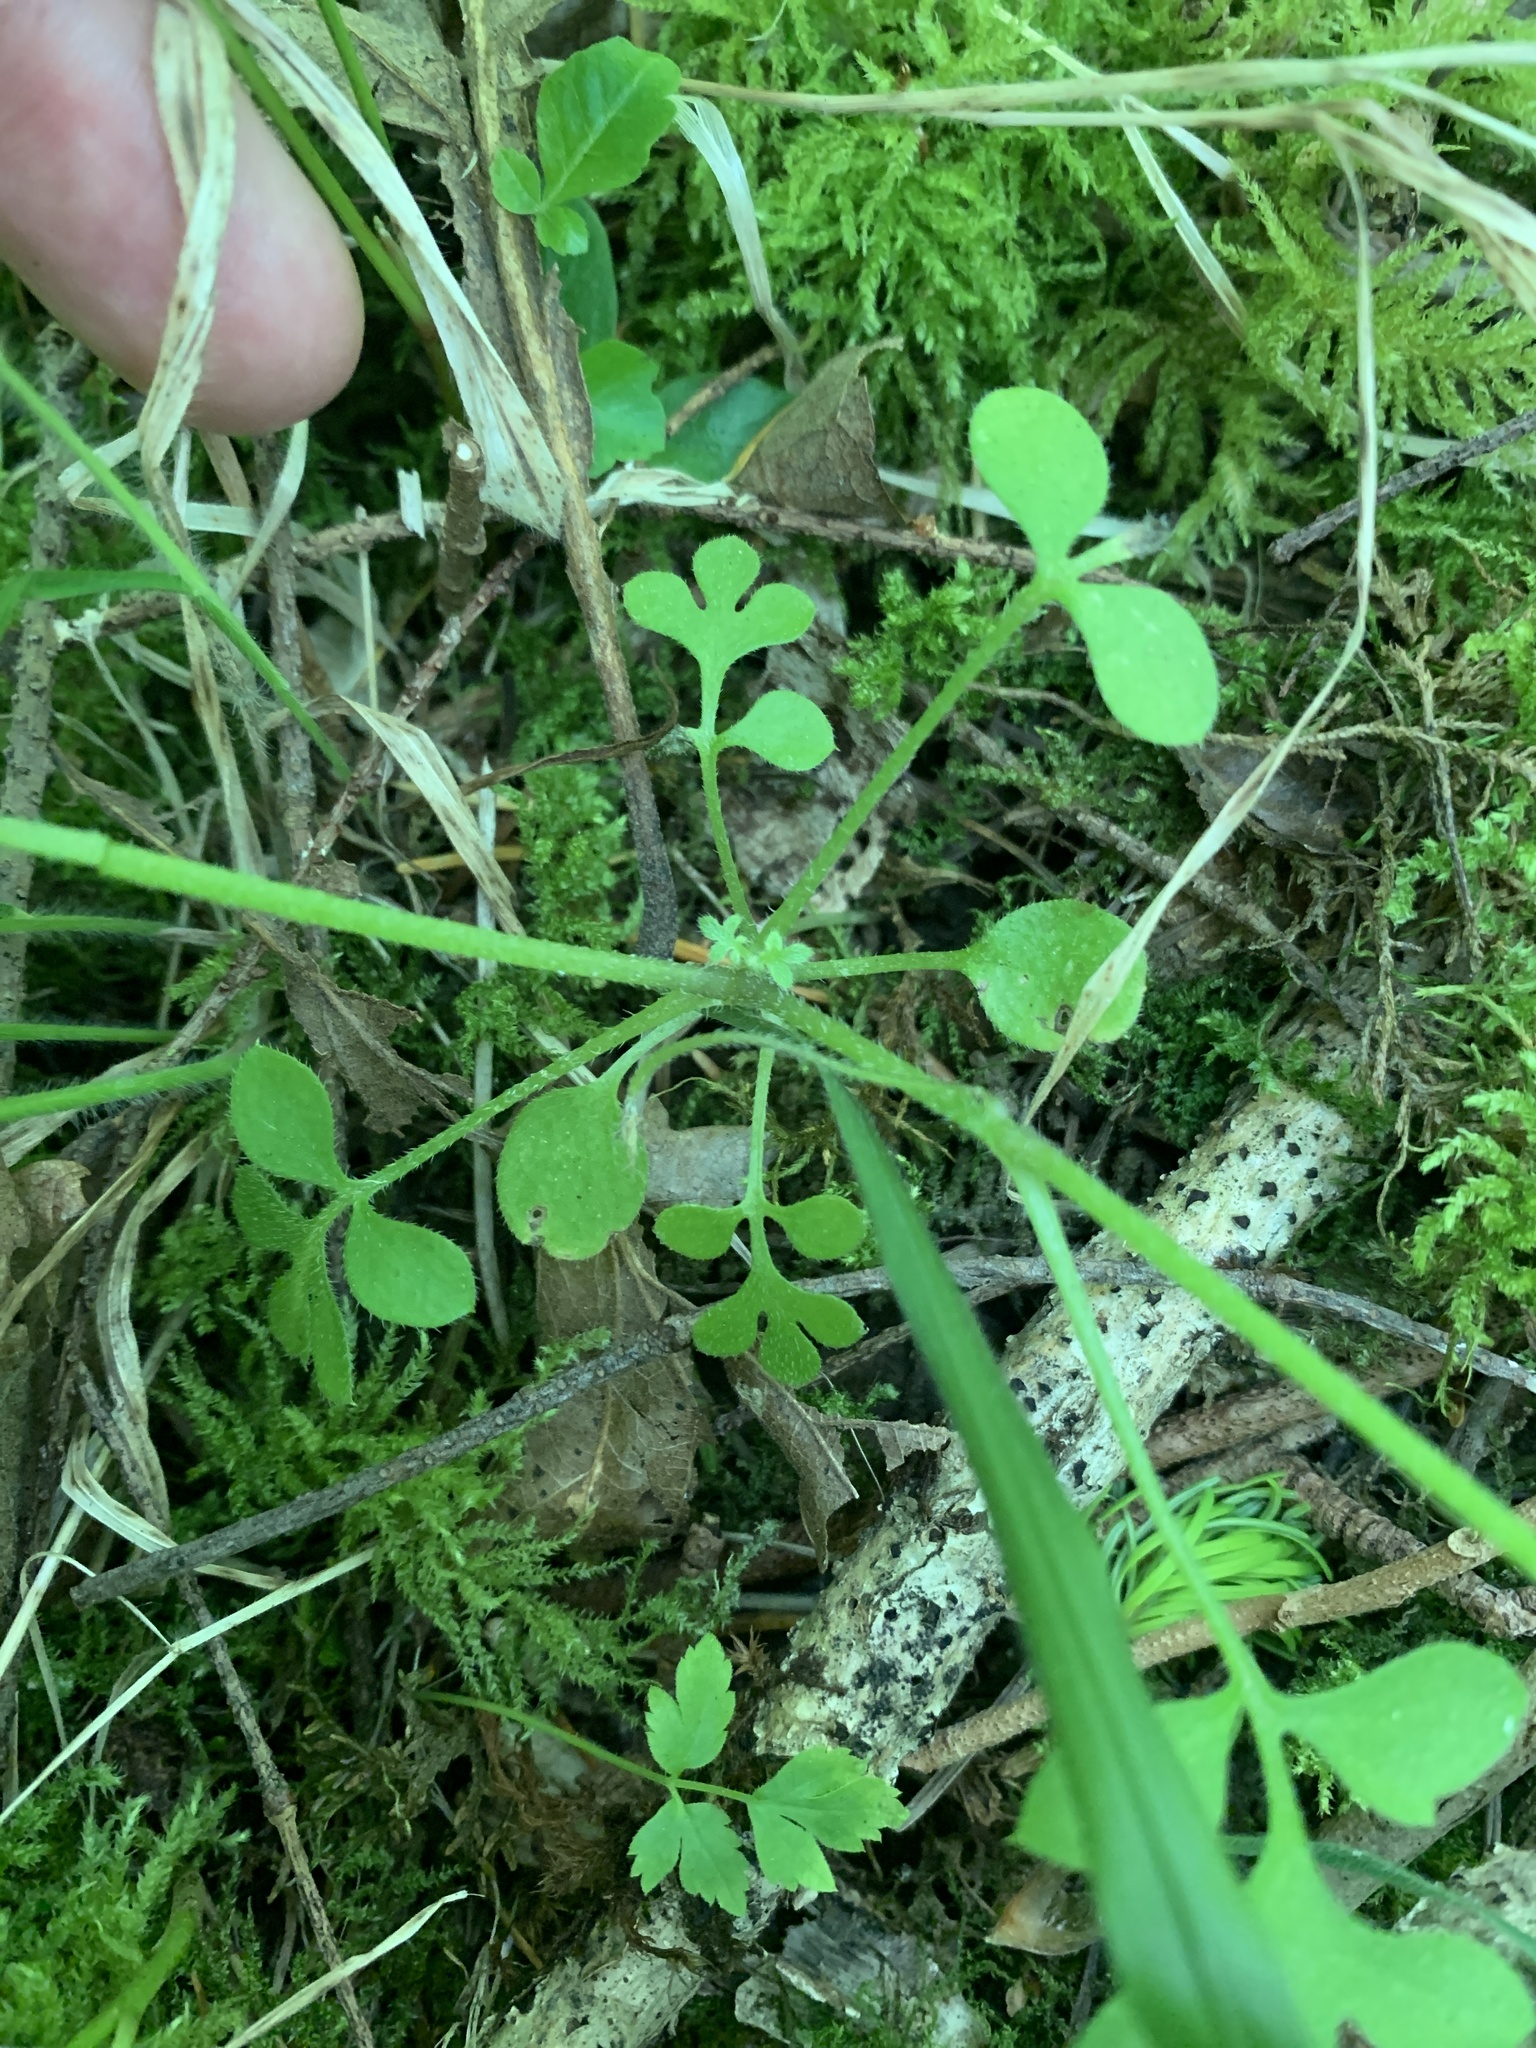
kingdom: Plantae
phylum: Tracheophyta
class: Magnoliopsida
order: Boraginales
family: Hydrophyllaceae
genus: Nemophila
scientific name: Nemophila parviflora
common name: Small-flowered baby-blue-eyes
